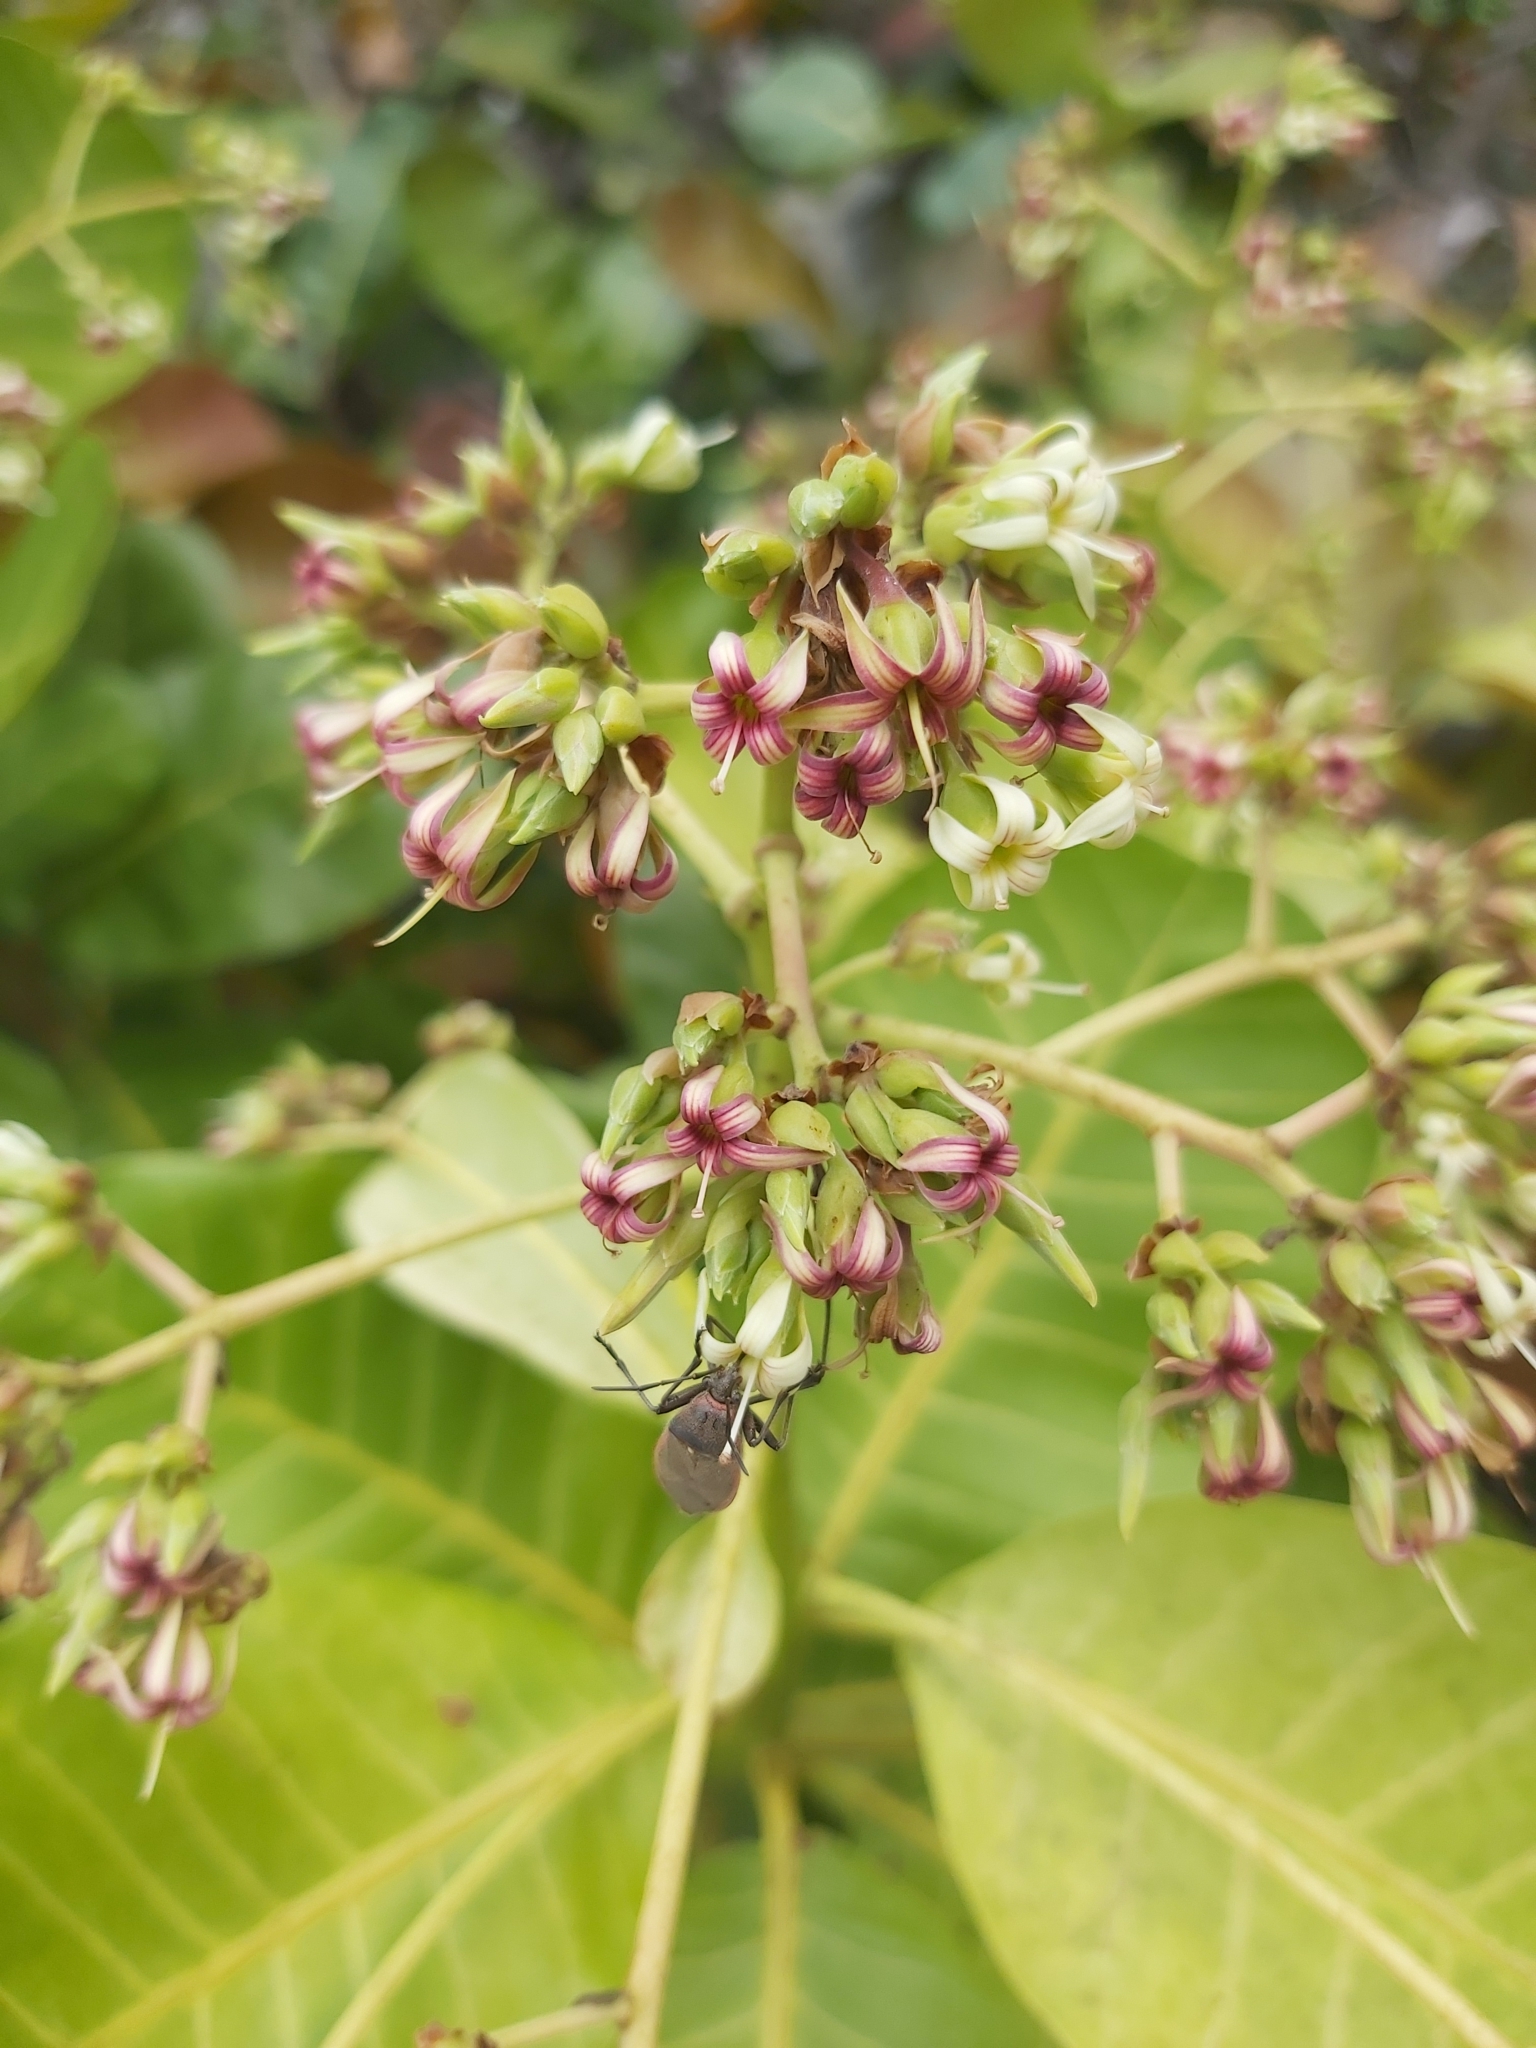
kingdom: Plantae
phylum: Tracheophyta
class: Magnoliopsida
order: Sapindales
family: Anacardiaceae
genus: Anacardium
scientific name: Anacardium occidentale
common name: Cashew
